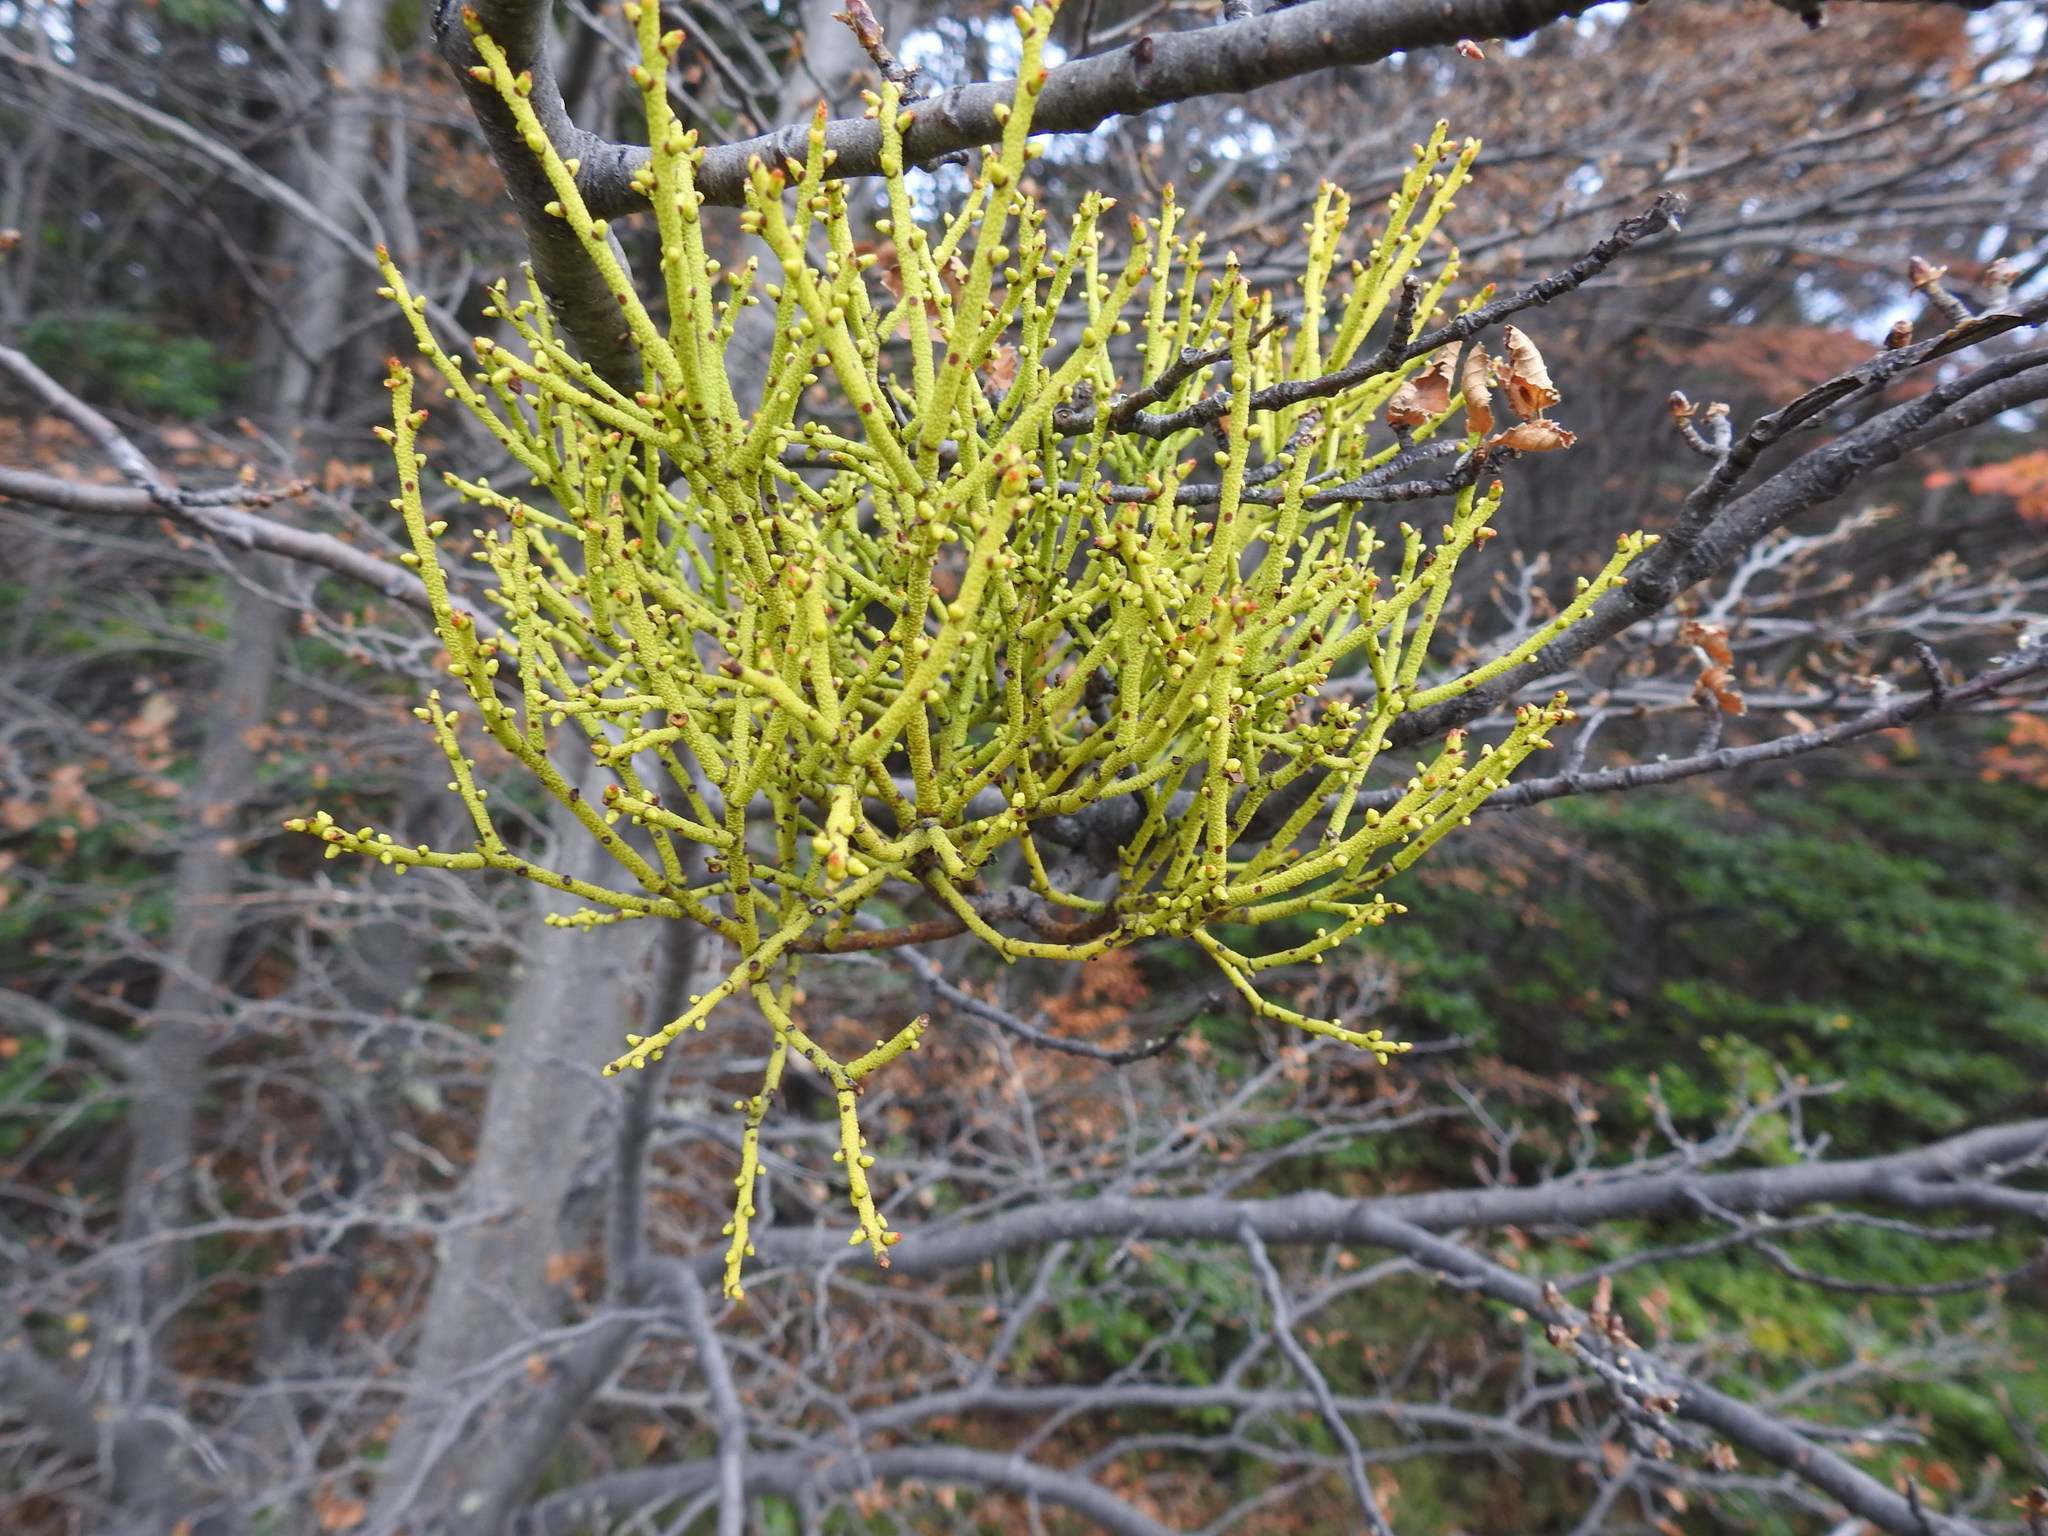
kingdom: Plantae
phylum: Tracheophyta
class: Magnoliopsida
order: Santalales
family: Misodendraceae
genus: Misodendrum
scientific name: Misodendrum punctulatum
